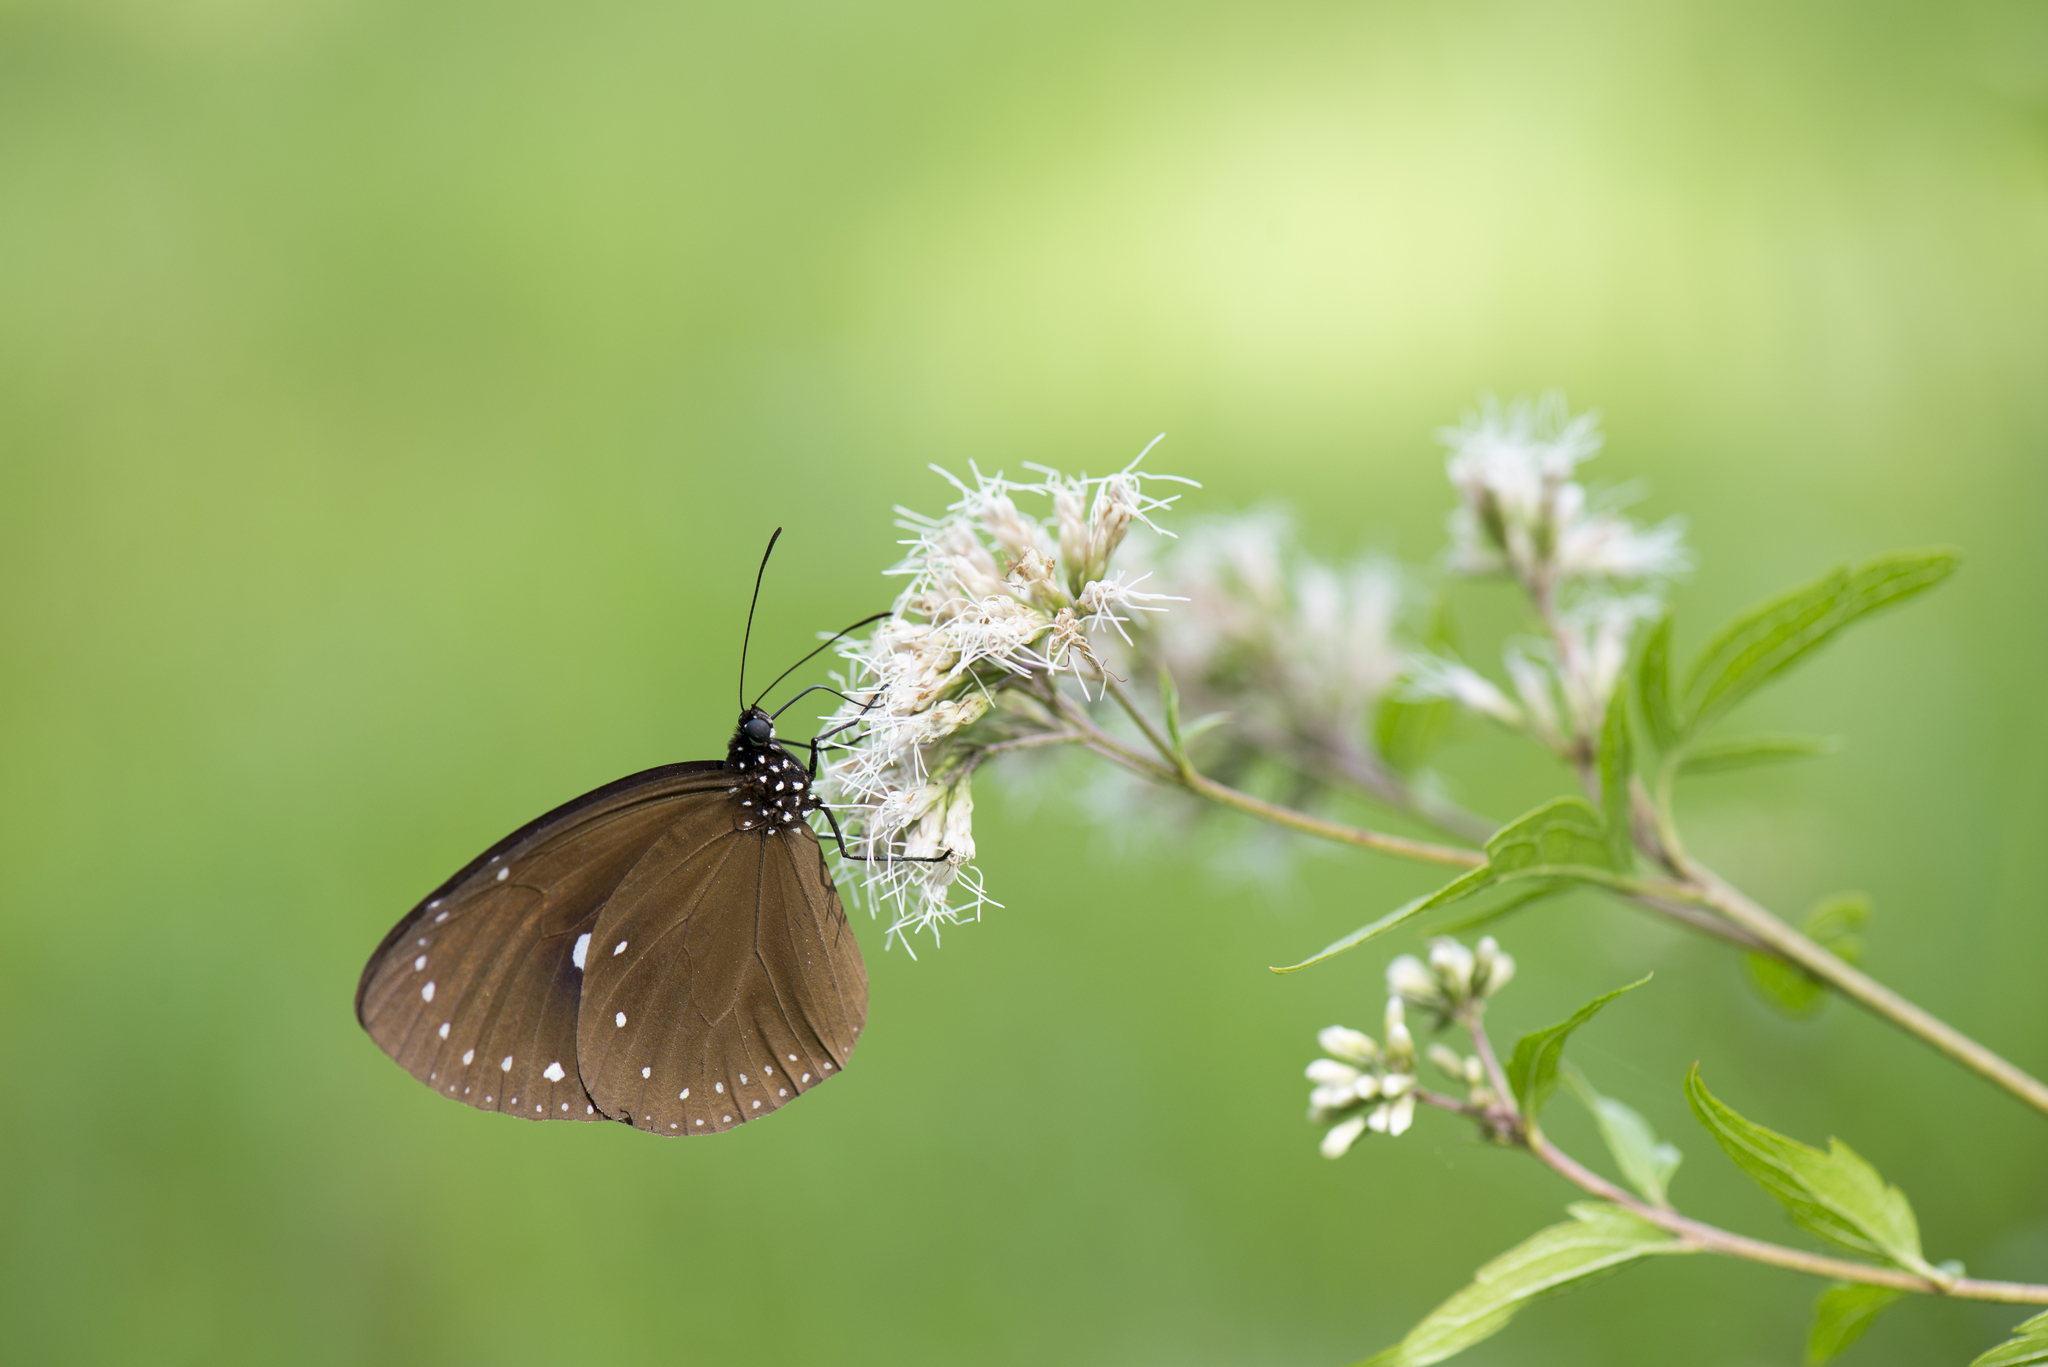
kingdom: Animalia
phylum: Arthropoda
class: Insecta
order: Lepidoptera
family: Nymphalidae
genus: Euploea
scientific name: Euploea tulliolus
